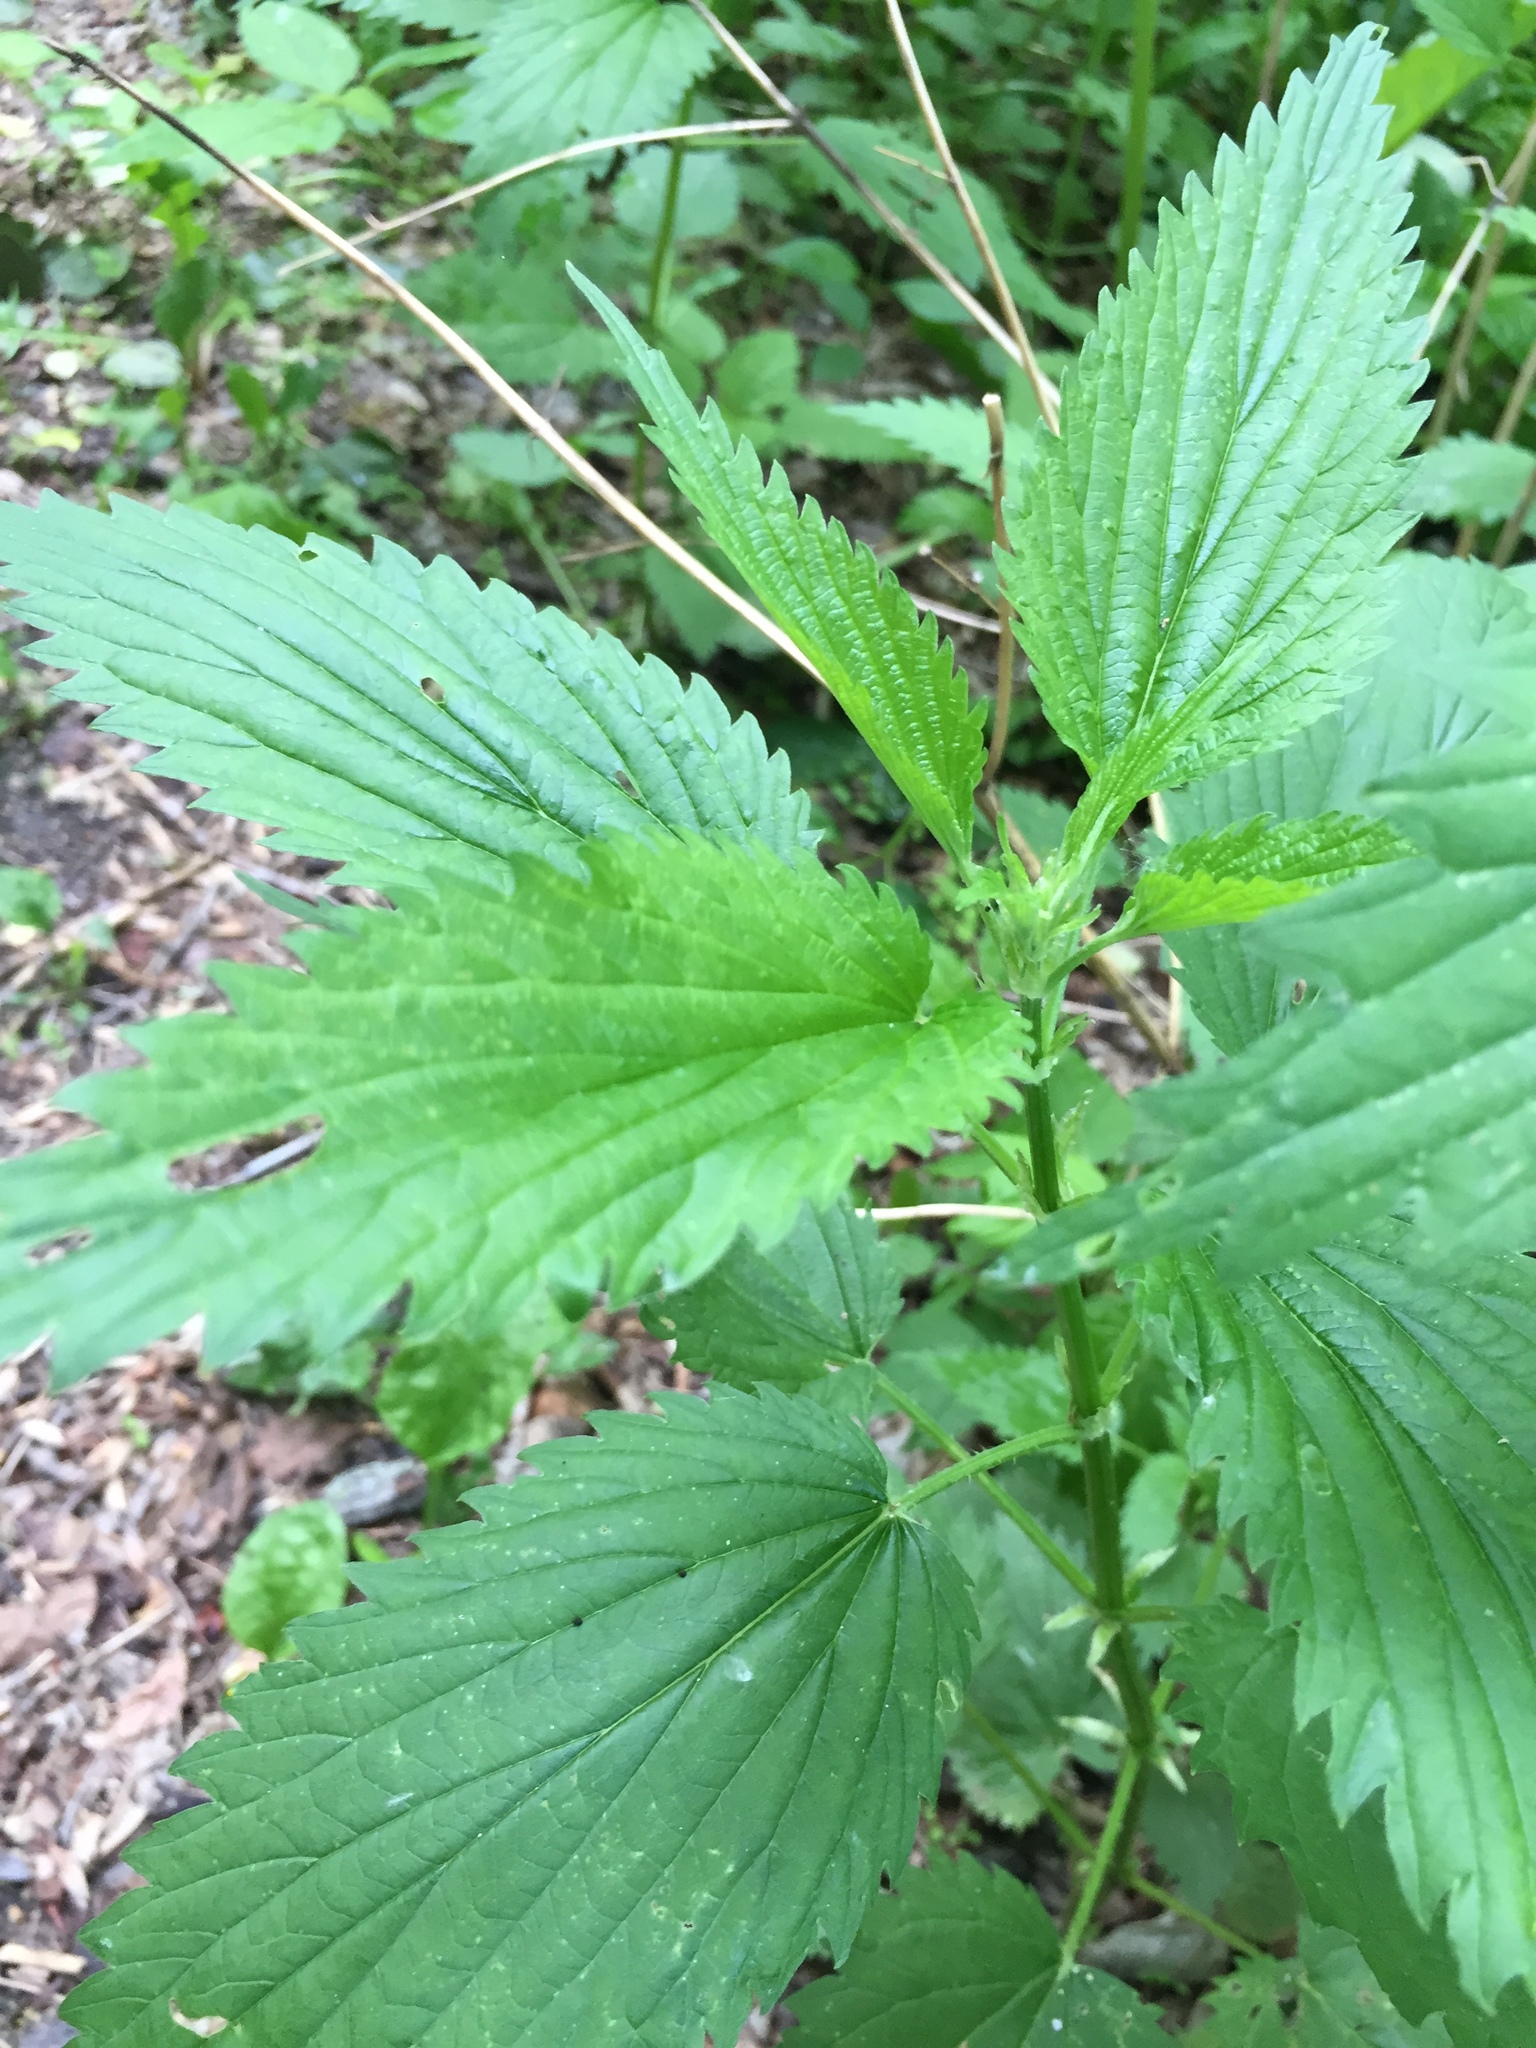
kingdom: Plantae
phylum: Tracheophyta
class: Magnoliopsida
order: Rosales
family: Urticaceae
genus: Urtica
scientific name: Urtica gracilis
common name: Slender stinging nettle
